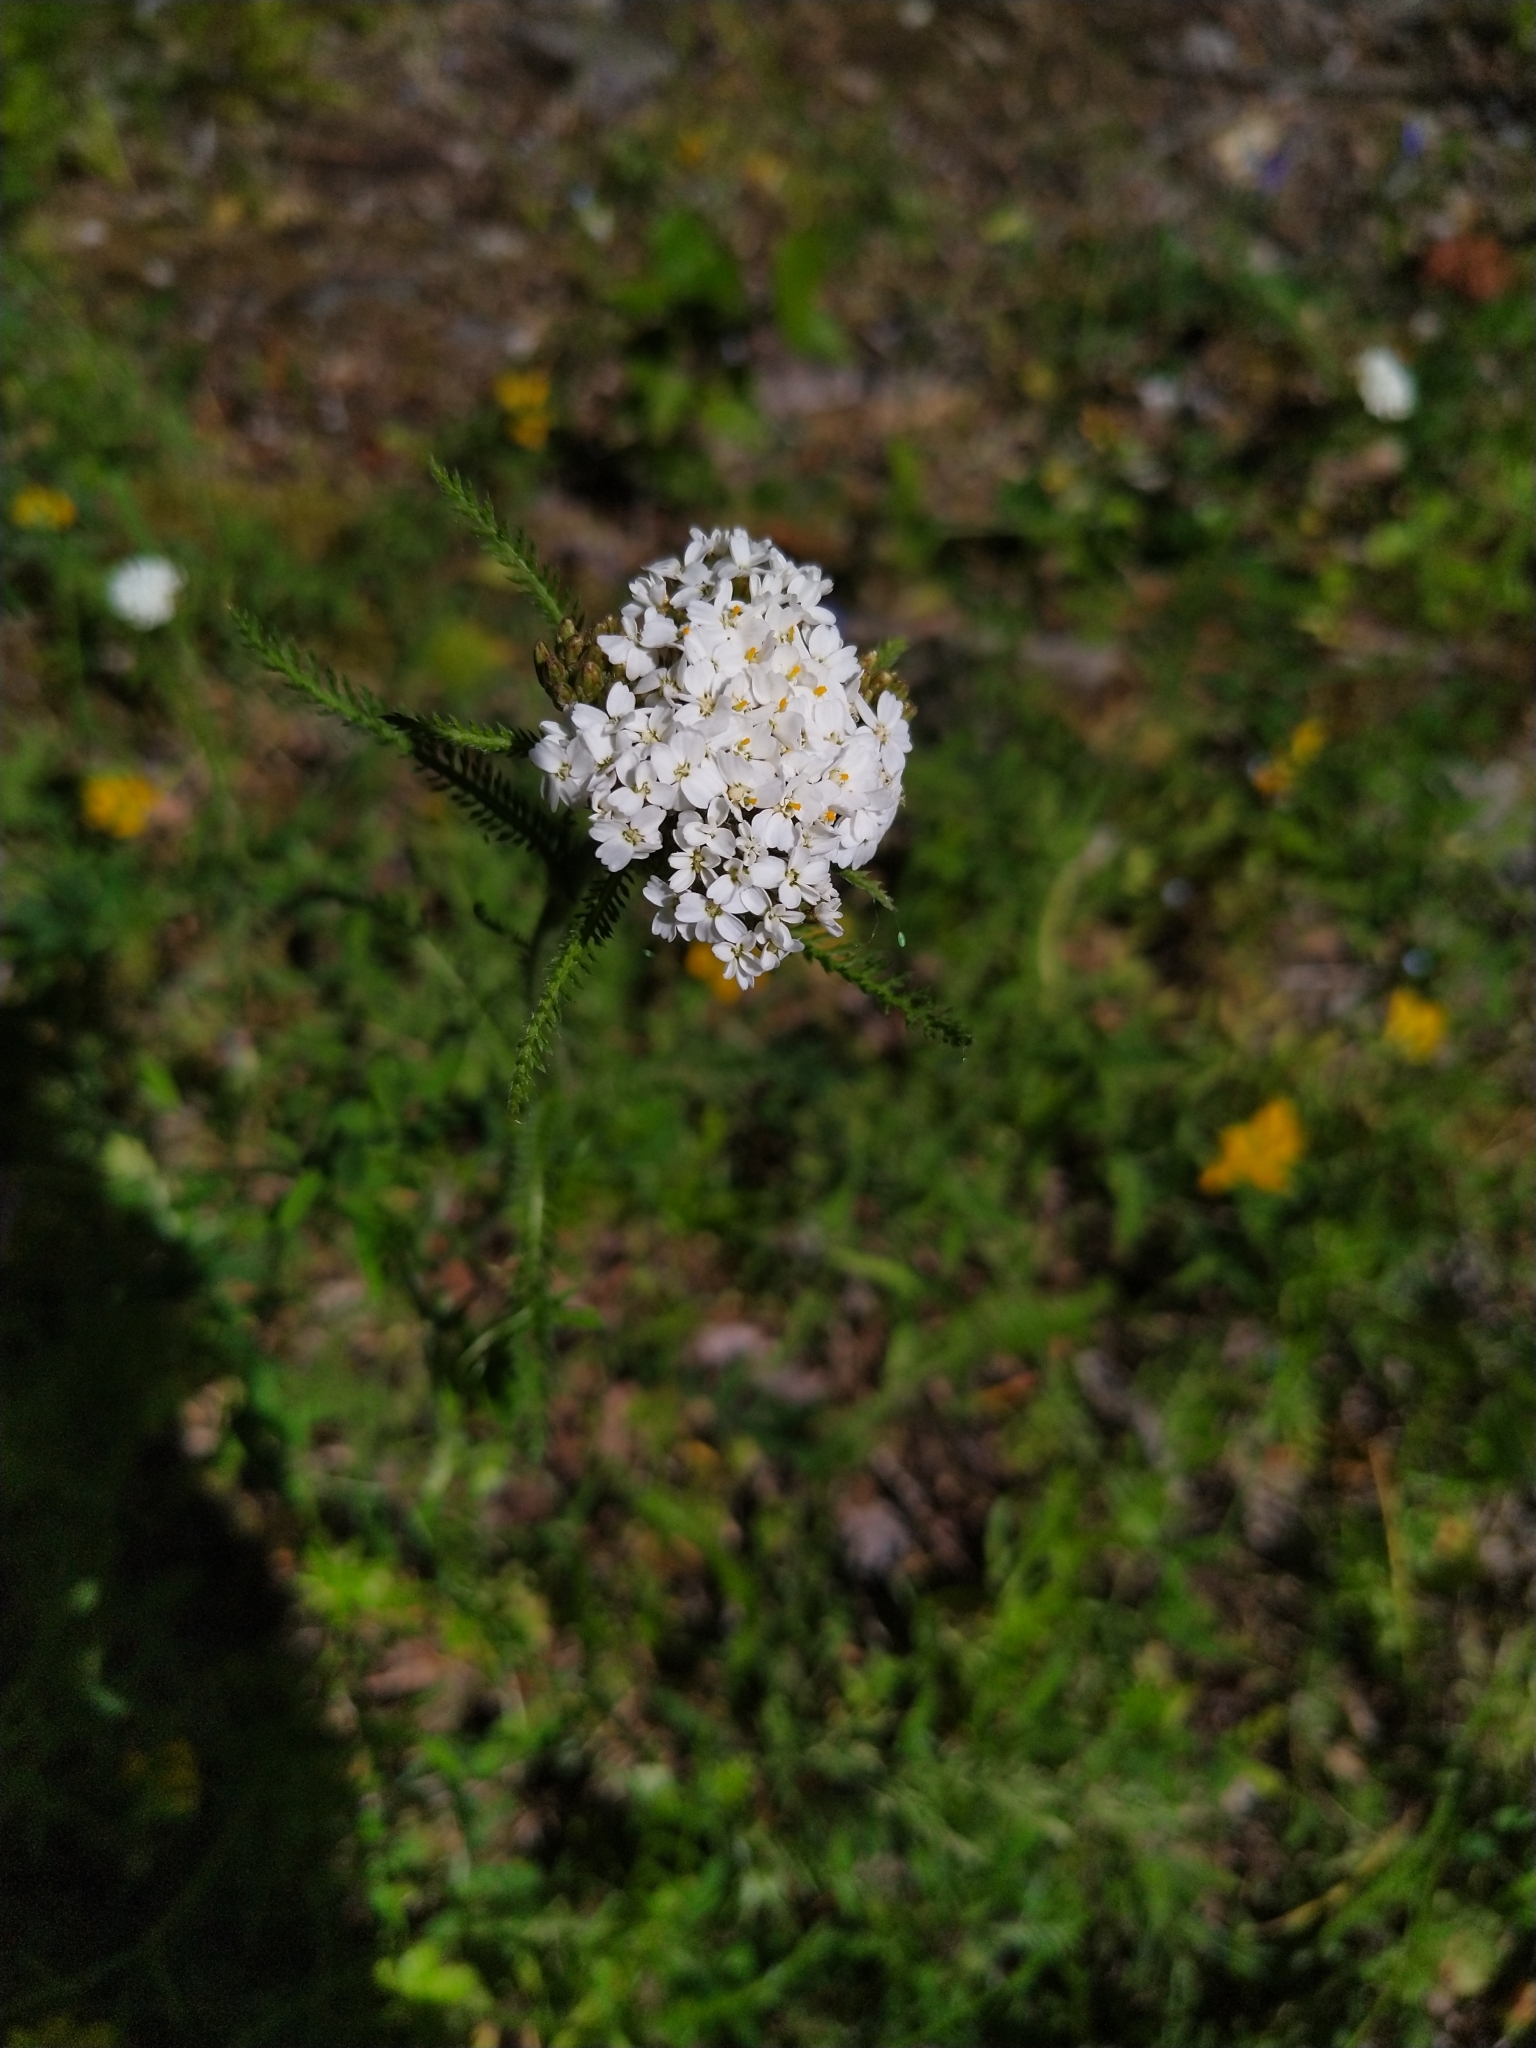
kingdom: Plantae
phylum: Tracheophyta
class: Magnoliopsida
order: Asterales
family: Asteraceae
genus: Achillea
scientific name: Achillea millefolium
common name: Yarrow
